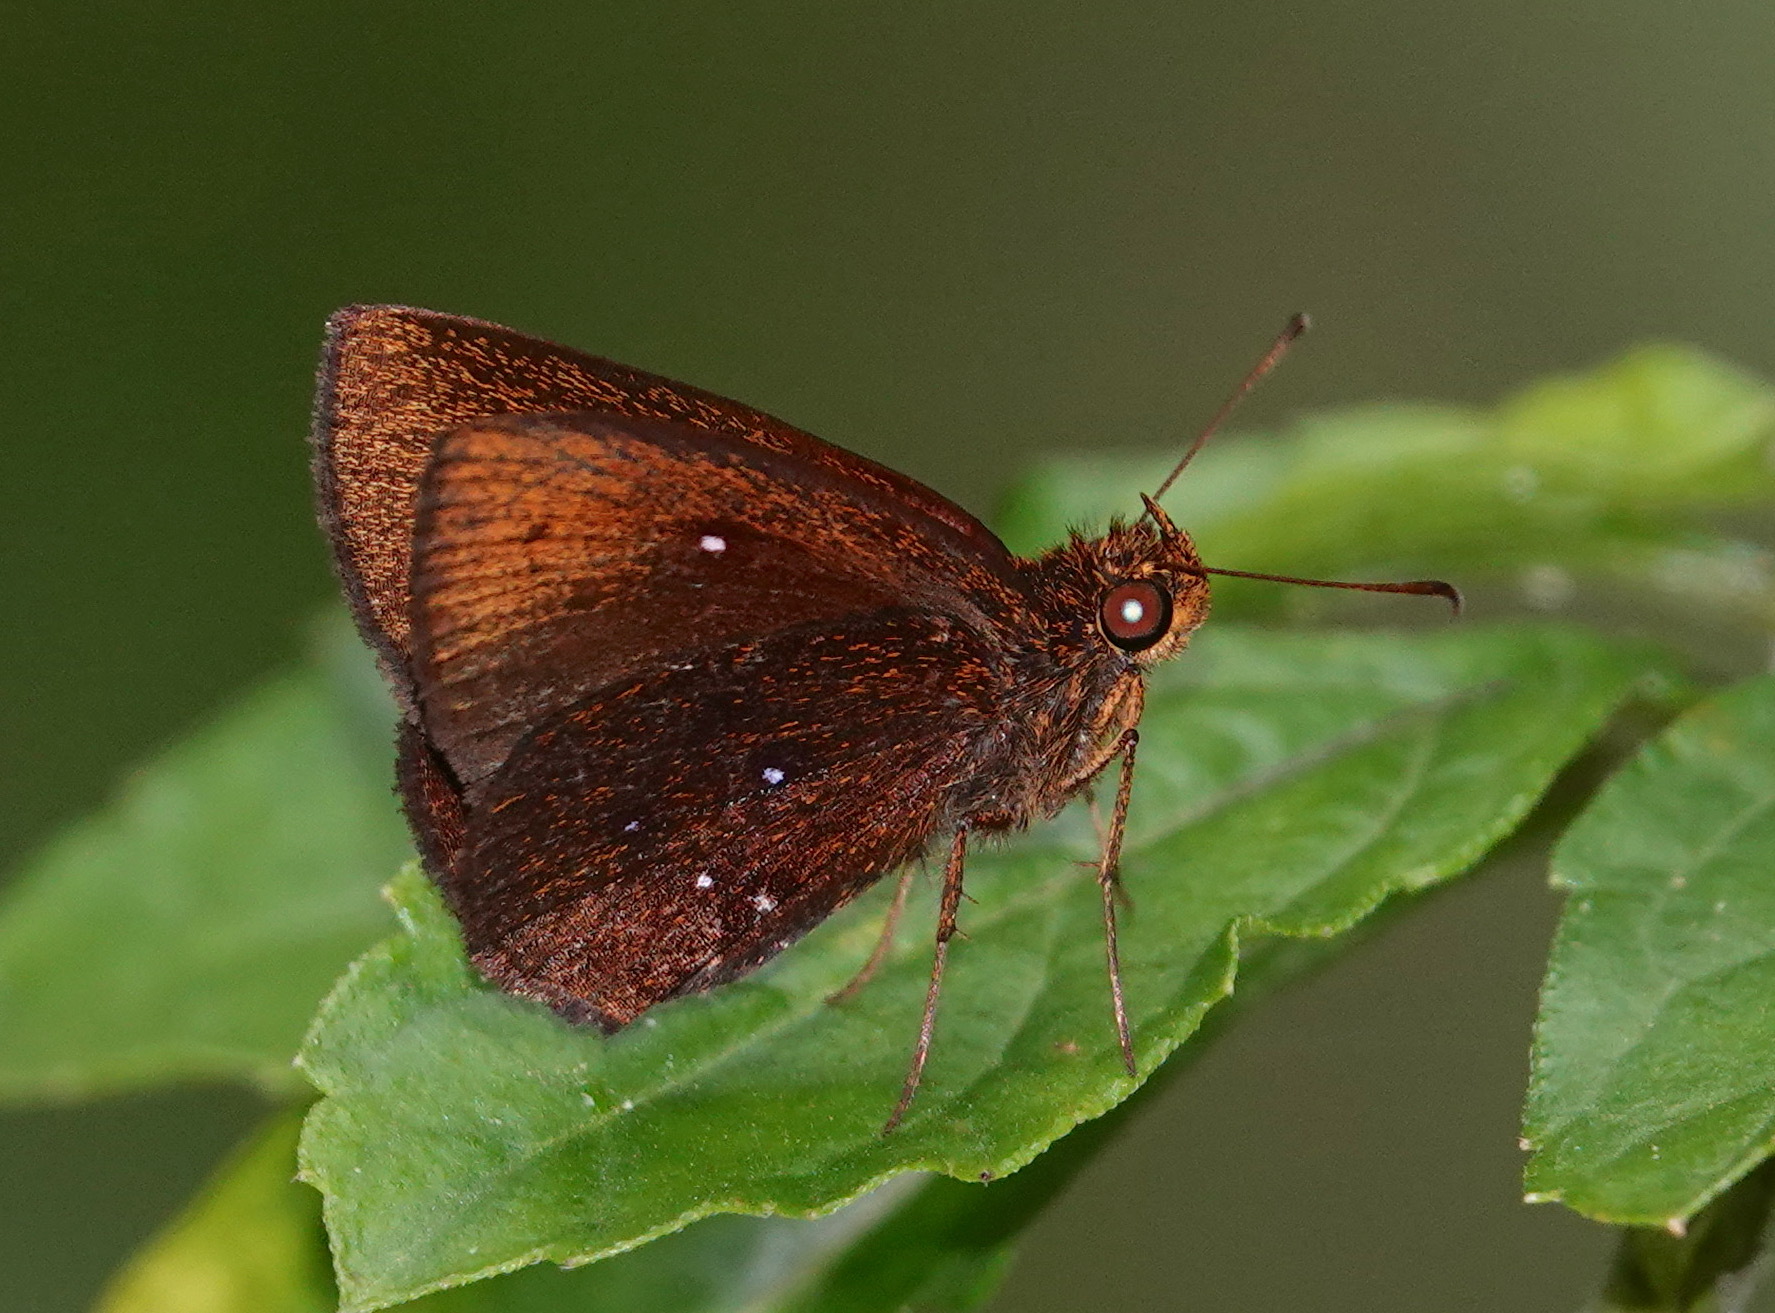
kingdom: Animalia
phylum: Arthropoda
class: Insecta
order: Lepidoptera
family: Hesperiidae
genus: Iambrix
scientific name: Iambrix stellifer
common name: Starry bob
